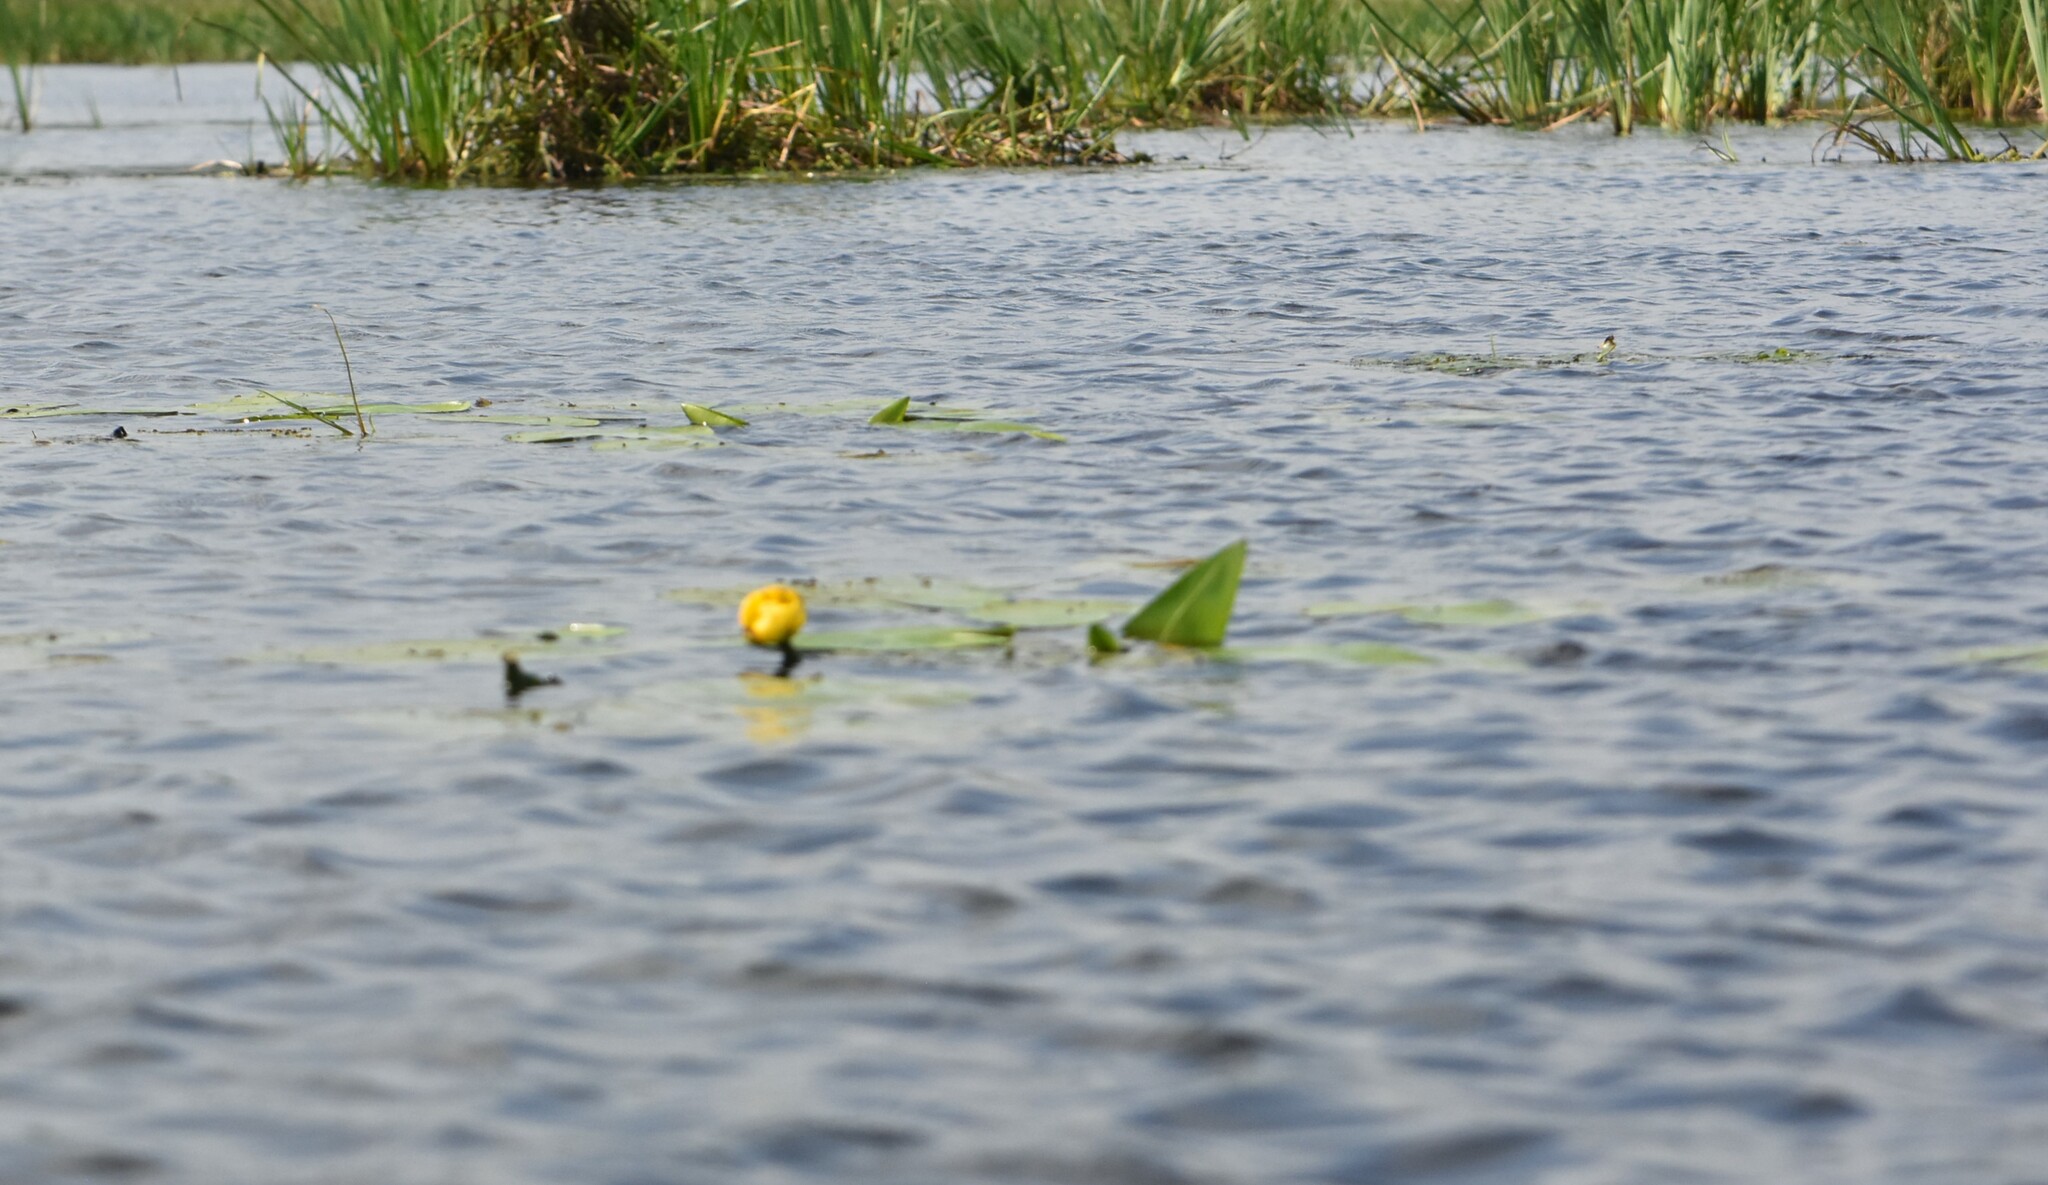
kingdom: Plantae
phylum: Tracheophyta
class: Magnoliopsida
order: Nymphaeales
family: Nymphaeaceae
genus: Nuphar
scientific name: Nuphar lutea
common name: Yellow water-lily
